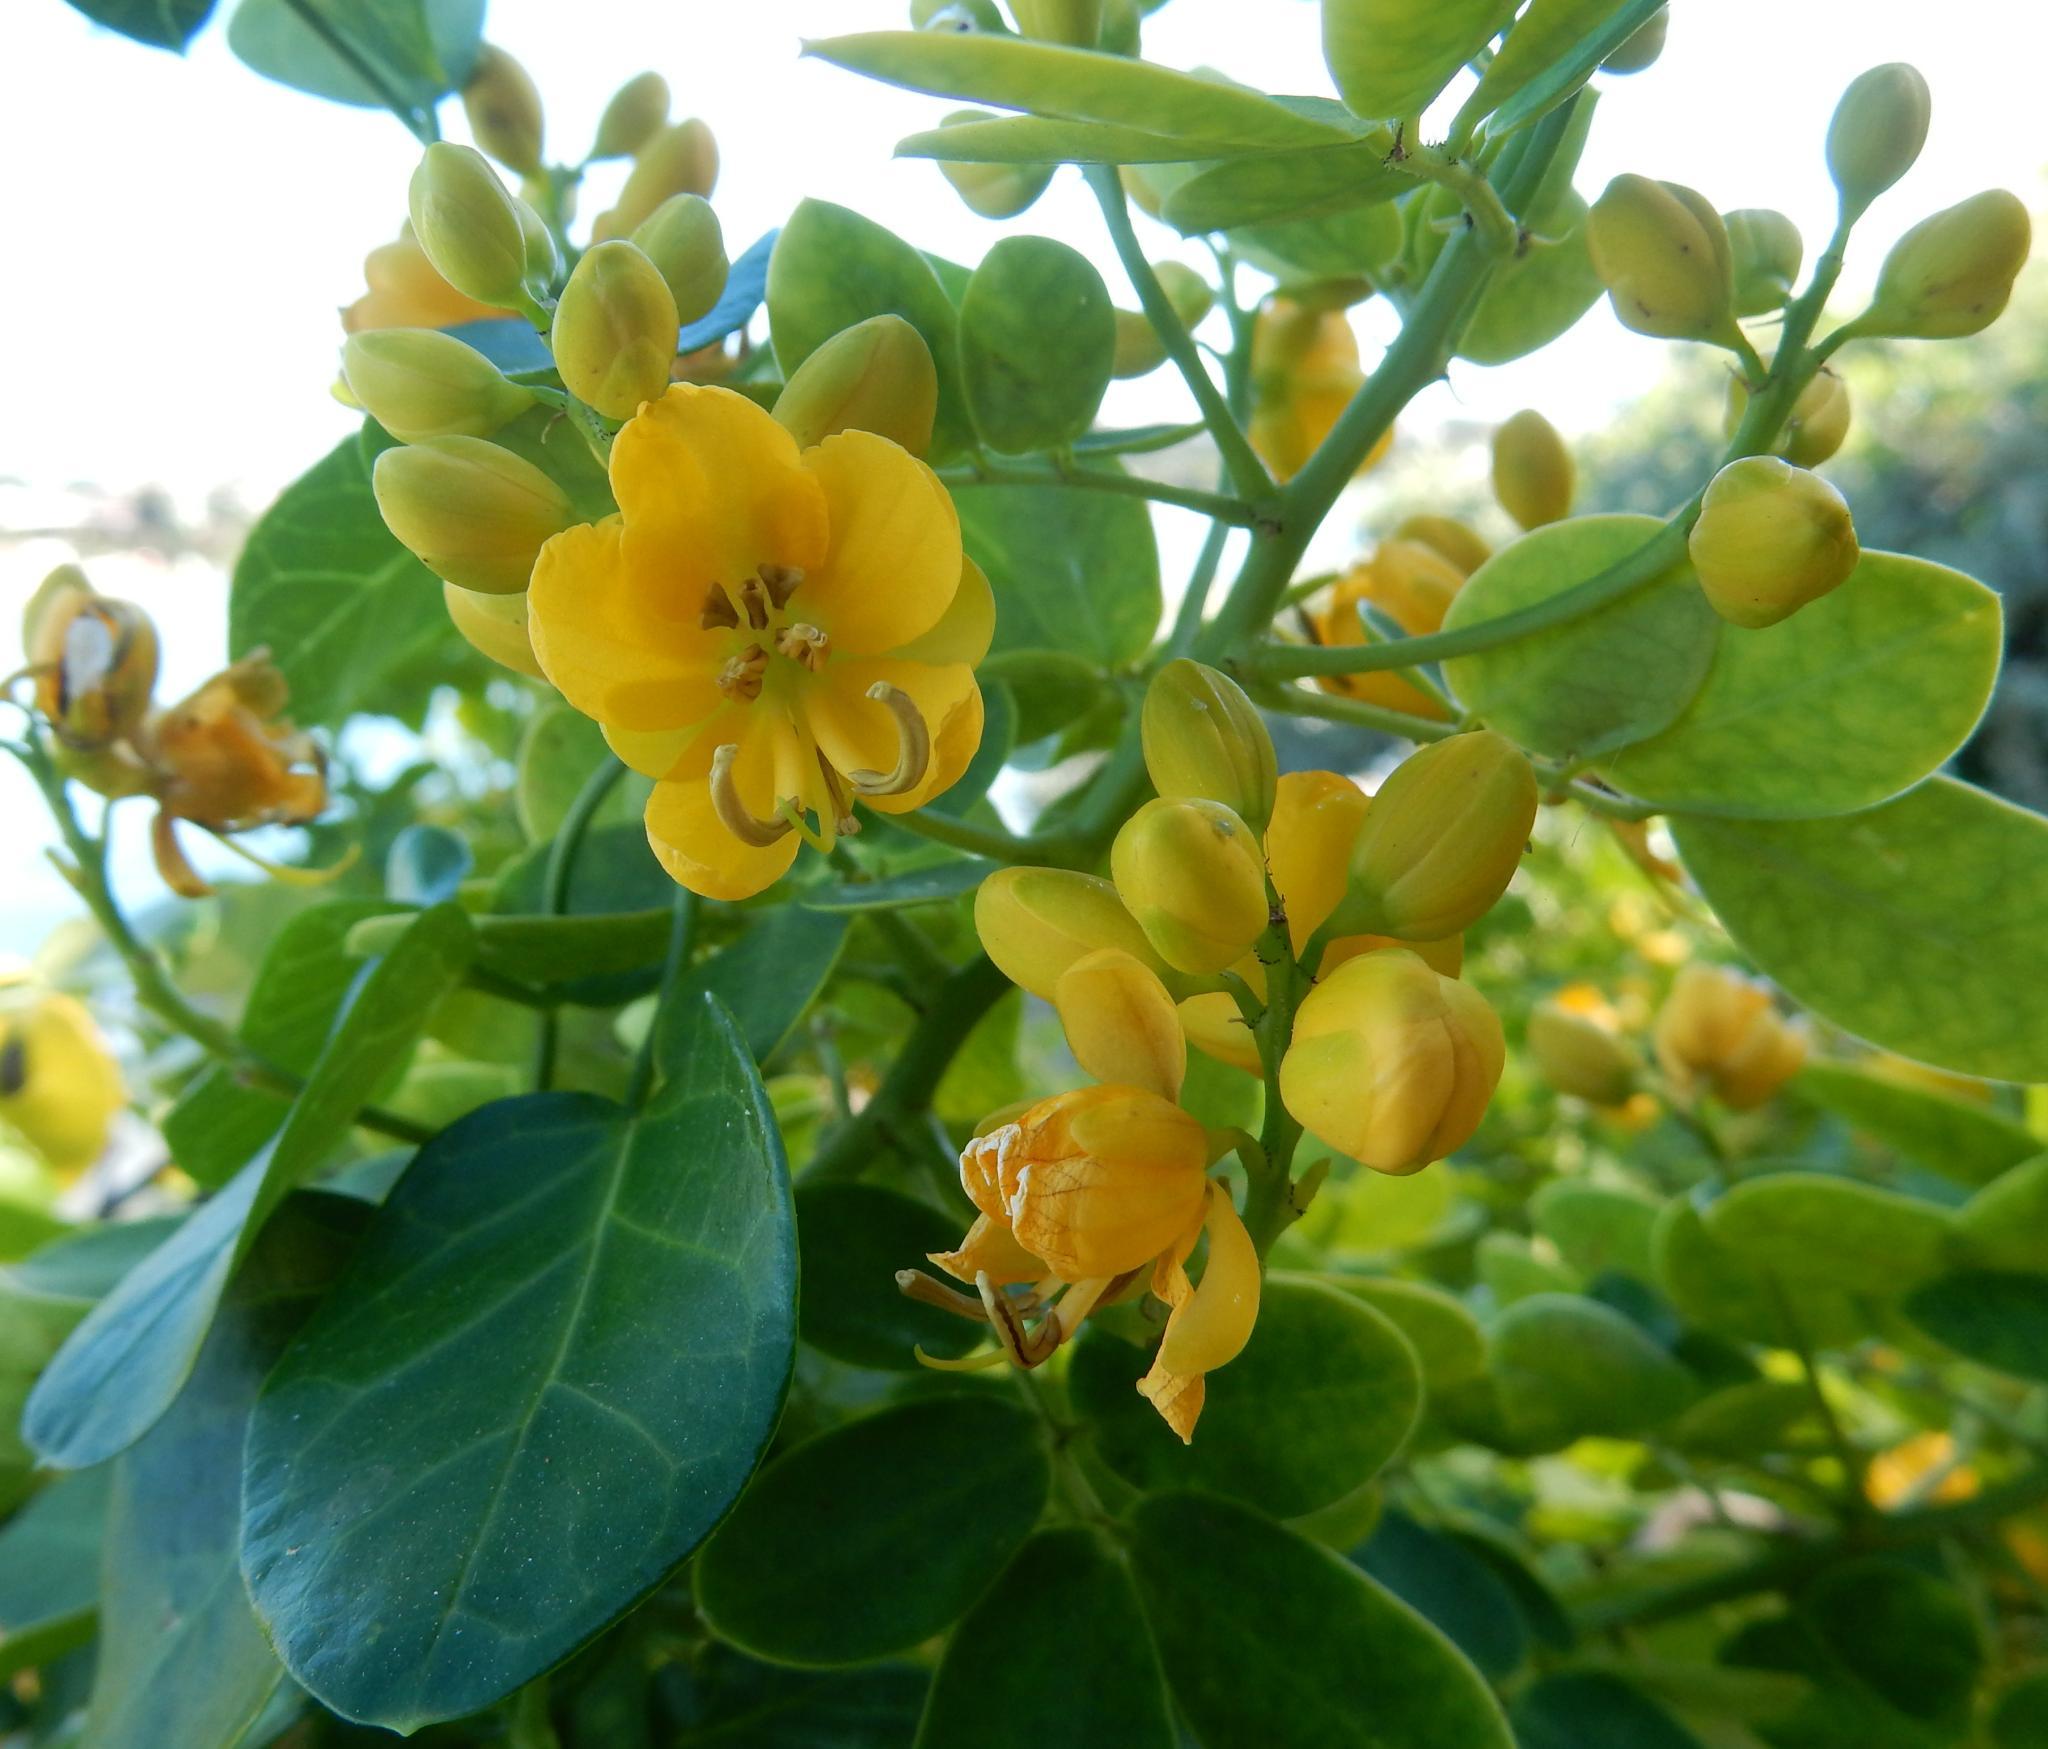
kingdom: Plantae
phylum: Tracheophyta
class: Magnoliopsida
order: Fabales
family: Fabaceae
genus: Senna
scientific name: Senna bicapsularis
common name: Christmasbush
